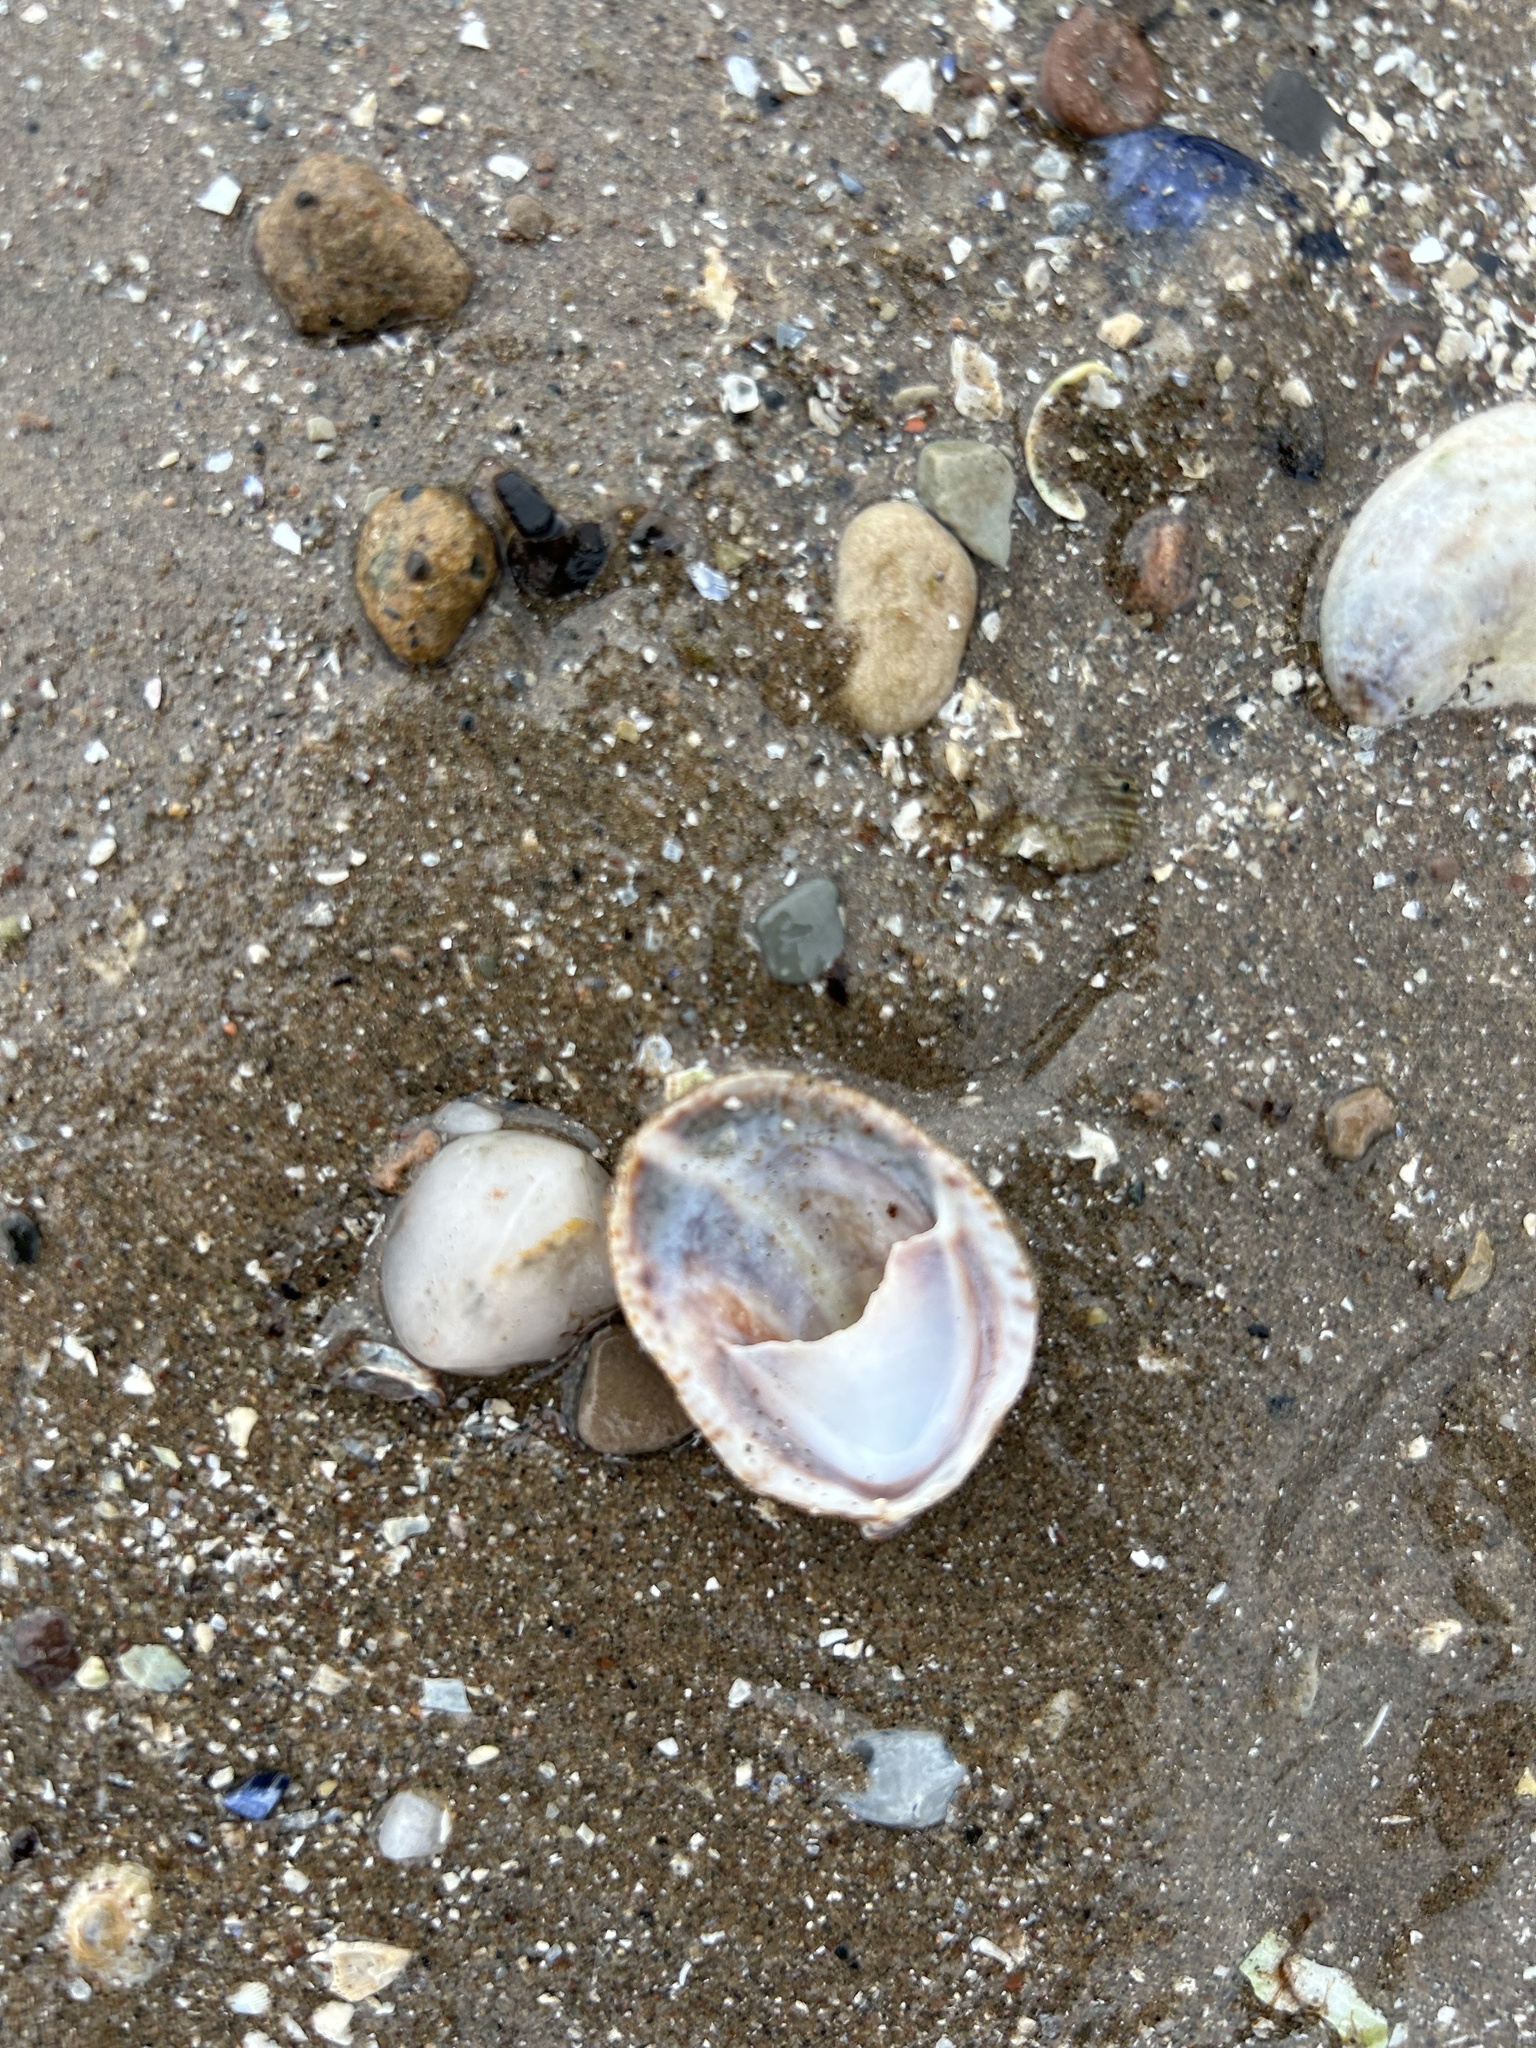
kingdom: Animalia
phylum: Mollusca
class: Gastropoda
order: Littorinimorpha
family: Calyptraeidae
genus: Crepidula
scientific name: Crepidula fornicata
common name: Slipper limpet
